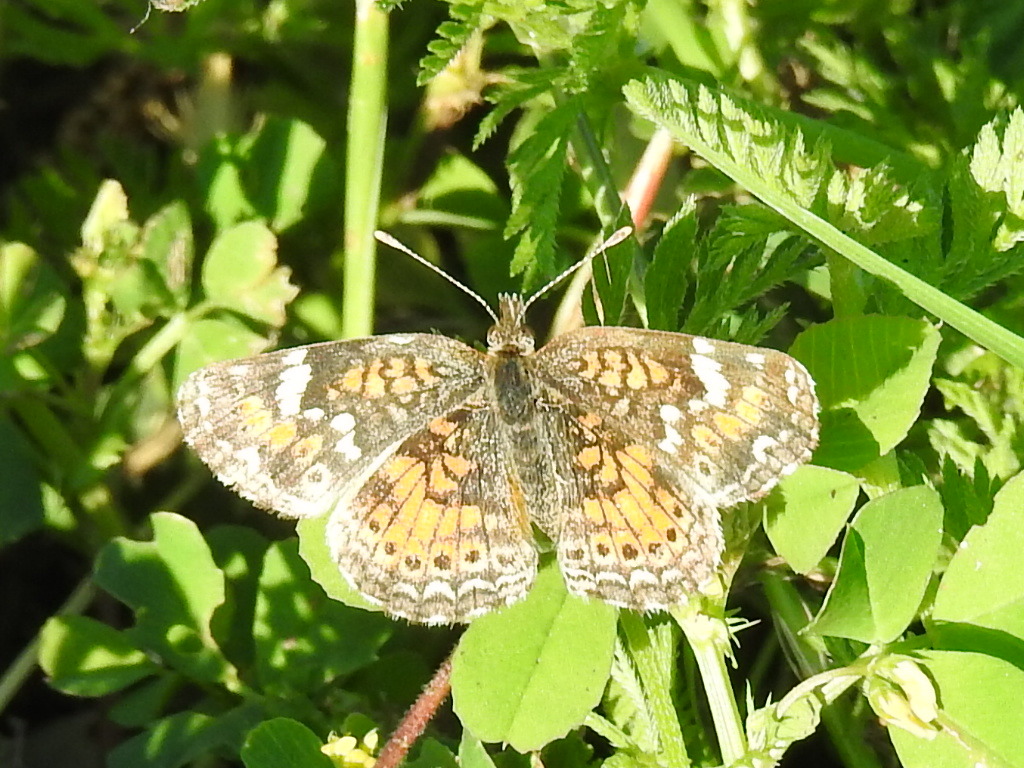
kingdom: Animalia
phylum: Arthropoda
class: Insecta
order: Lepidoptera
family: Nymphalidae
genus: Phyciodes
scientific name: Phyciodes phaon
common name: Phaon crescent
